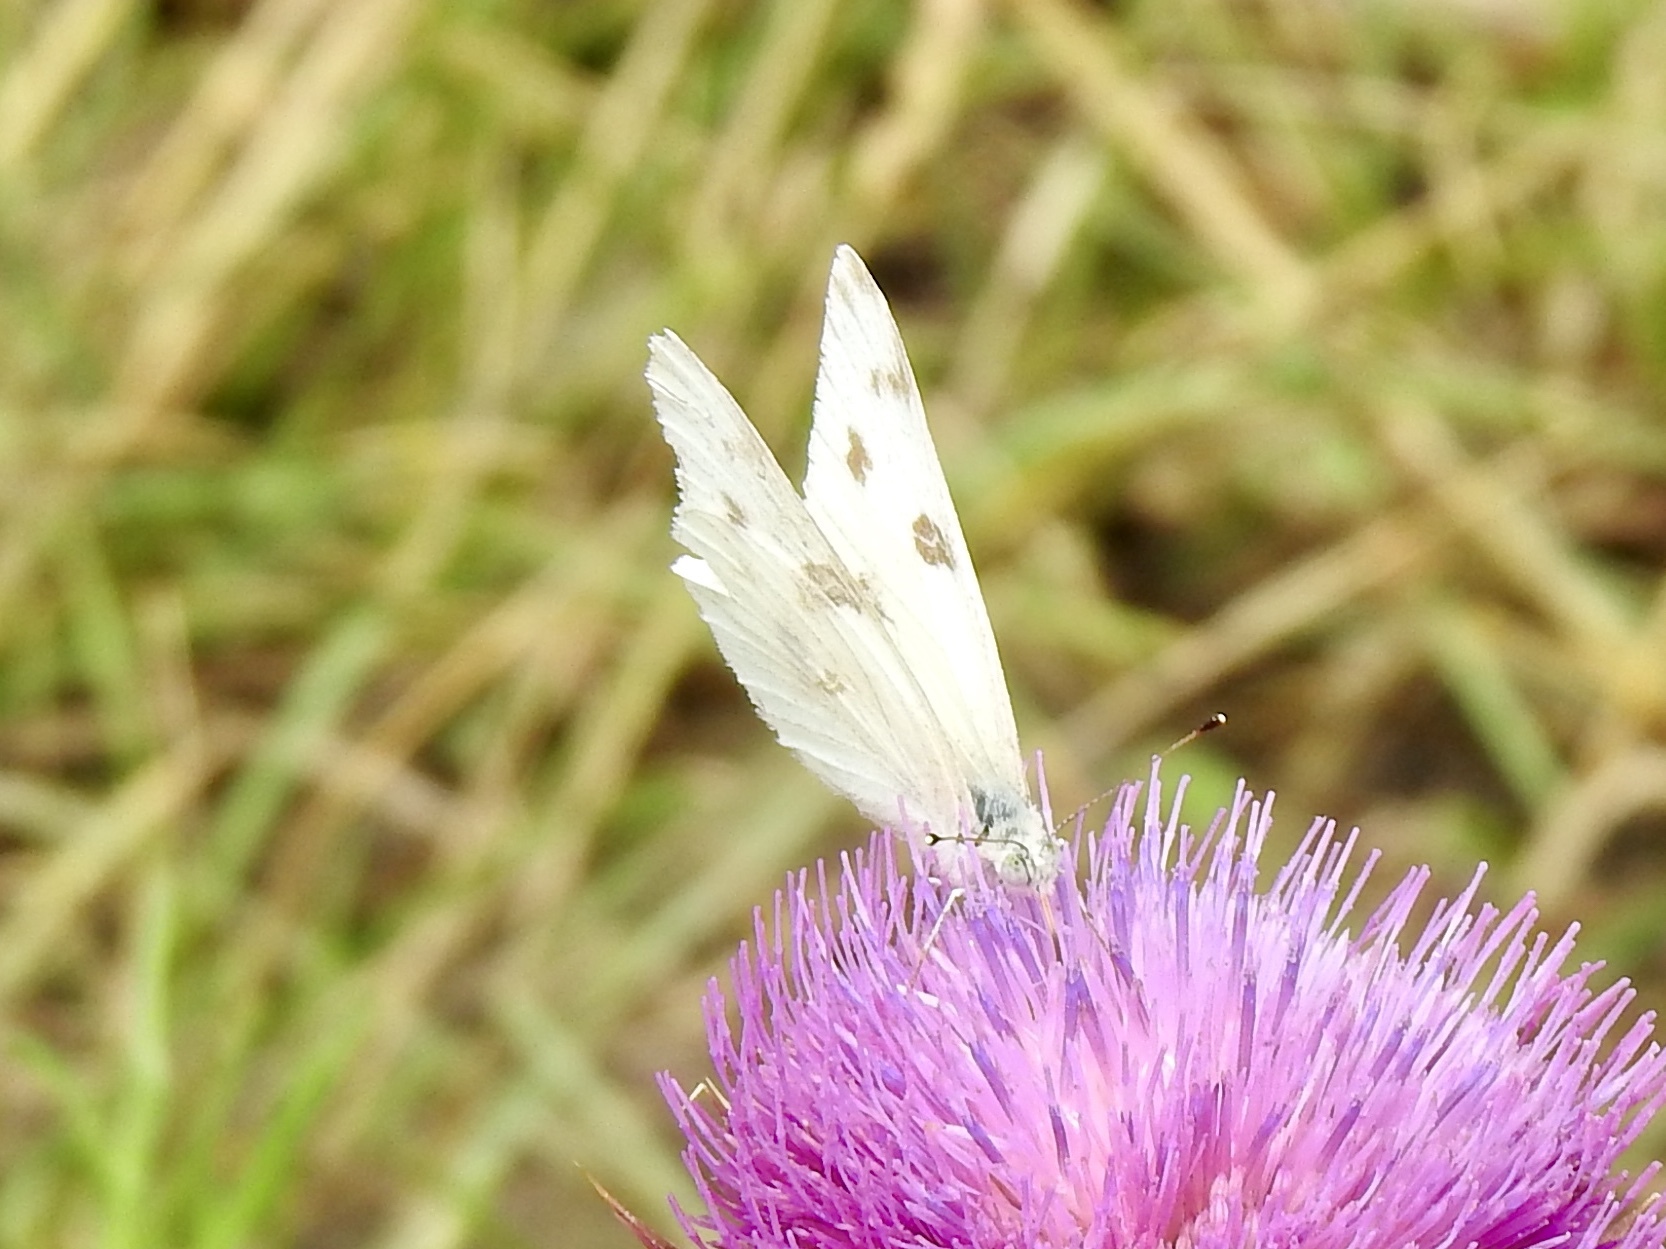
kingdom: Animalia
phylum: Arthropoda
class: Insecta
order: Lepidoptera
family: Pieridae
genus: Pontia
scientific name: Pontia protodice
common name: Checkered white
